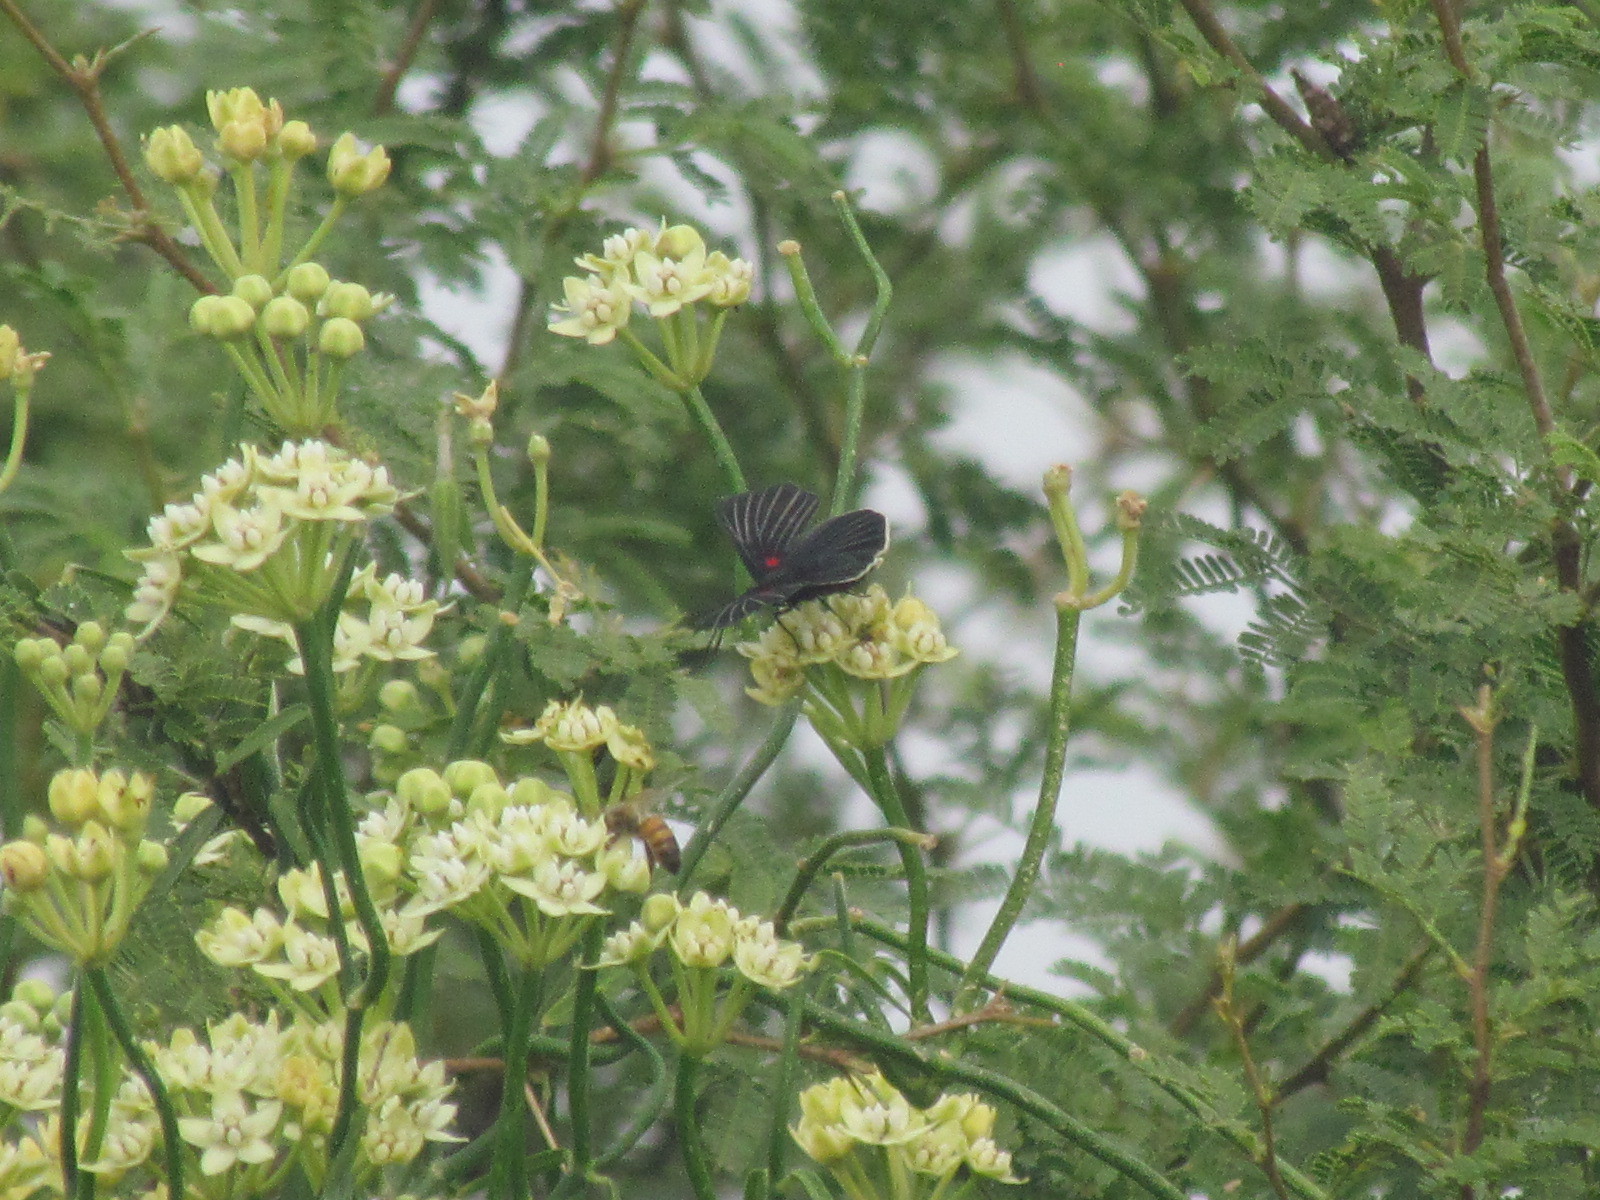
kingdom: Animalia
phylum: Arthropoda
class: Insecta
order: Lepidoptera
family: Lycaenidae
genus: Melanis
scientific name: Melanis
